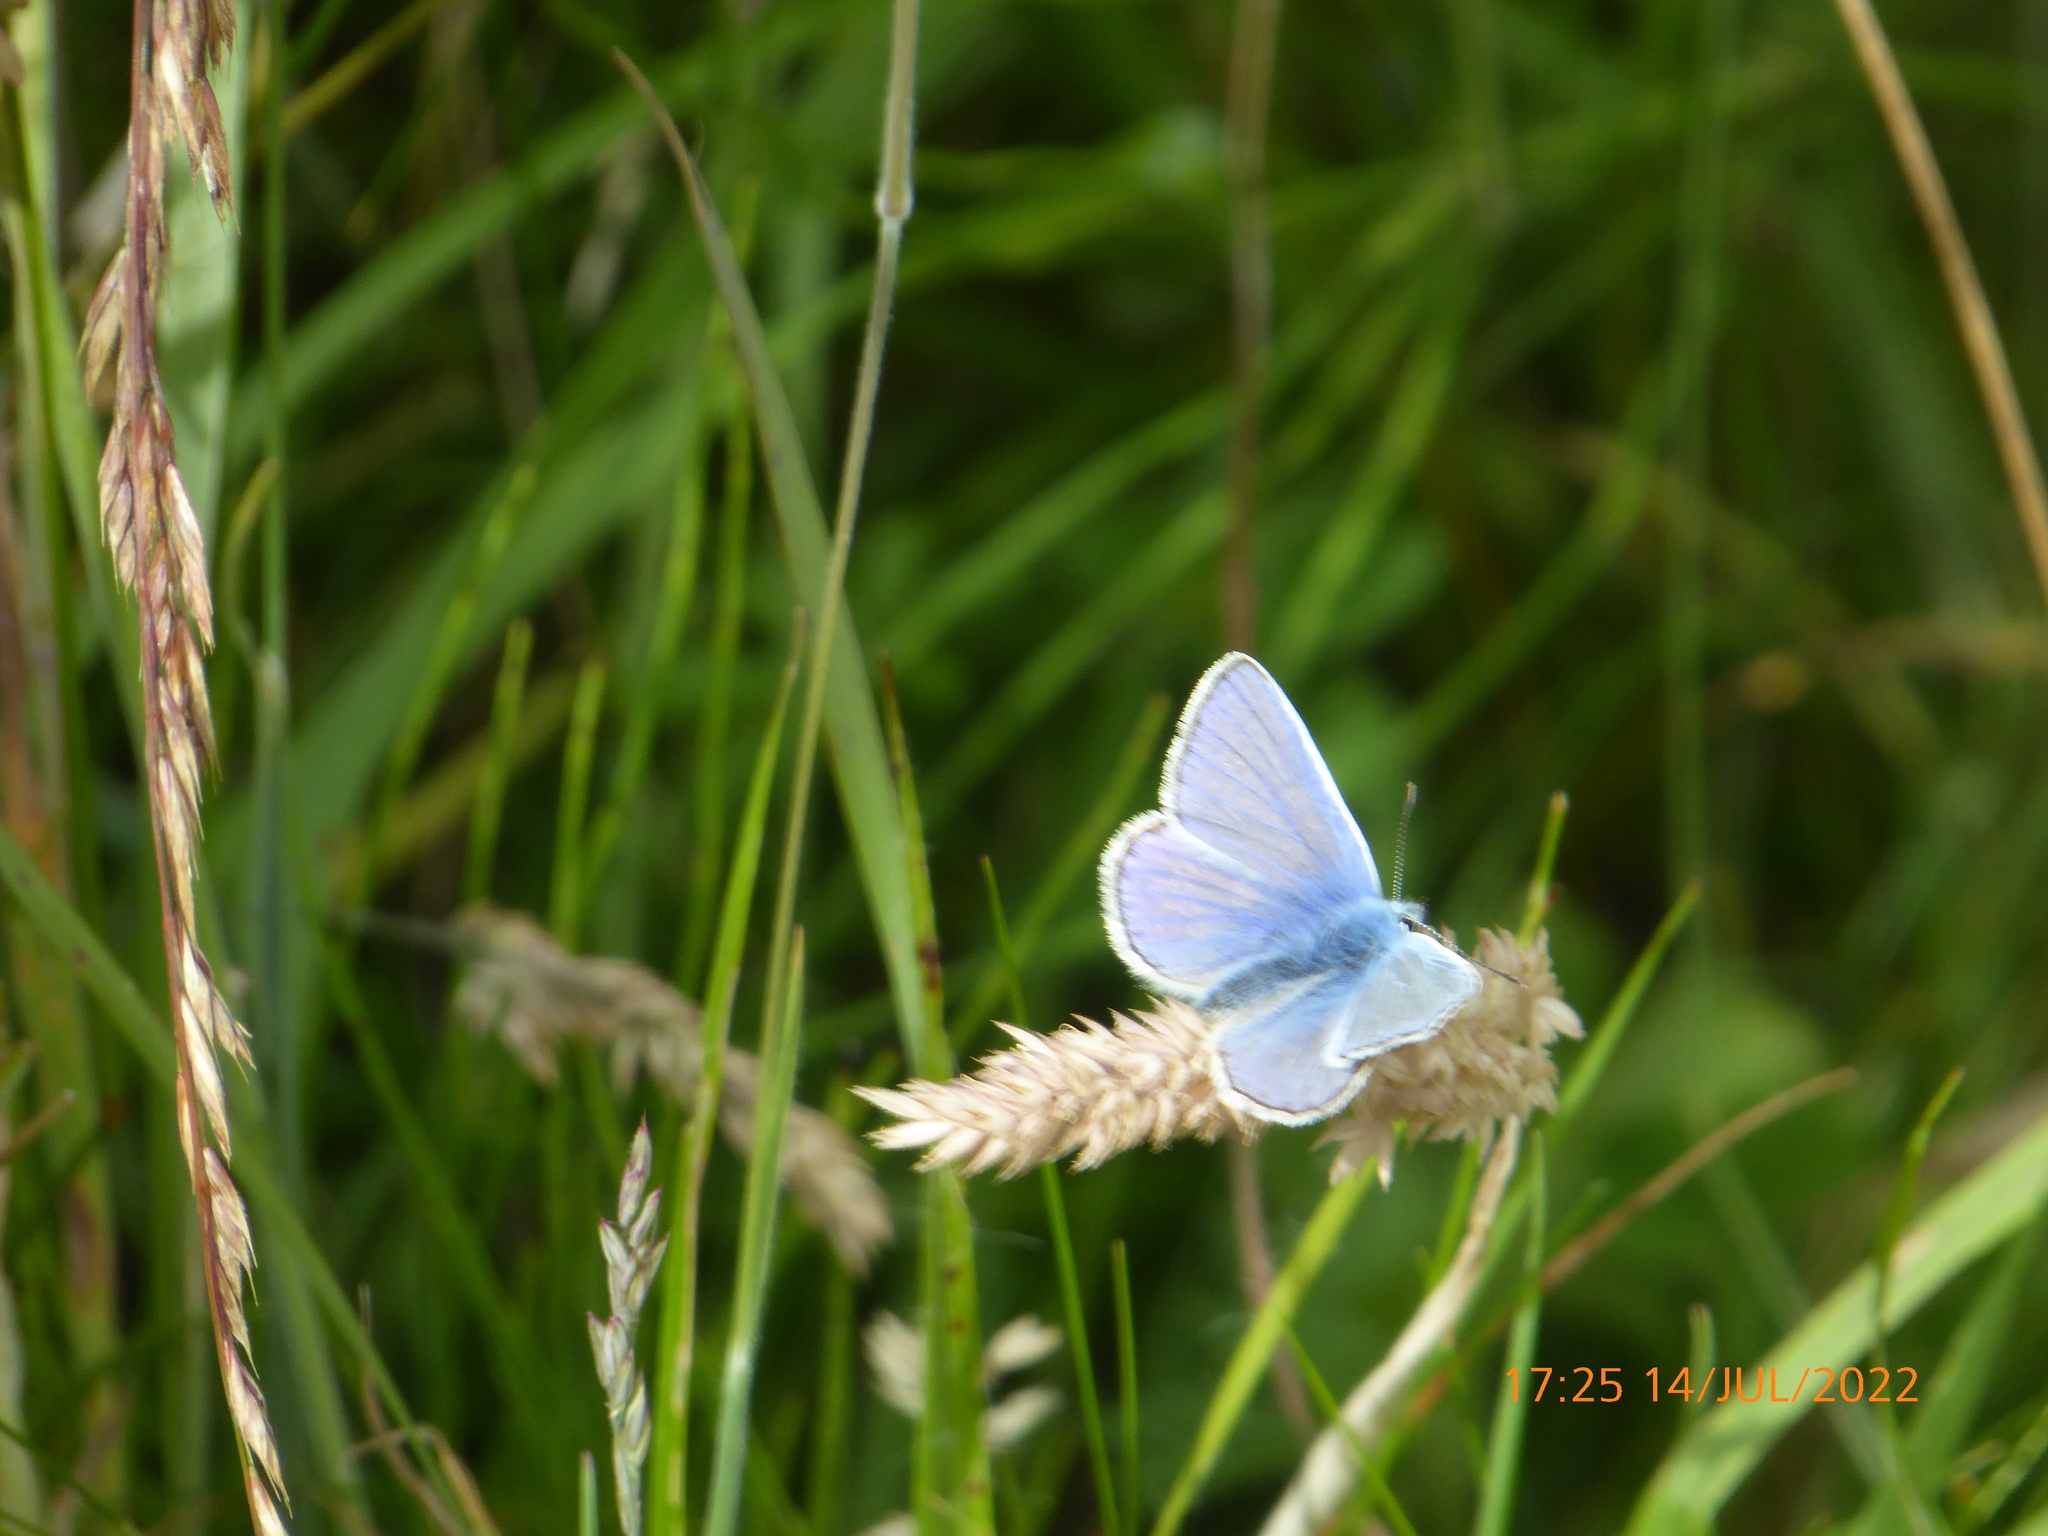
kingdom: Animalia
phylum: Arthropoda
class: Insecta
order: Lepidoptera
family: Lycaenidae
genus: Polyommatus
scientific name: Polyommatus icarus
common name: Common blue
